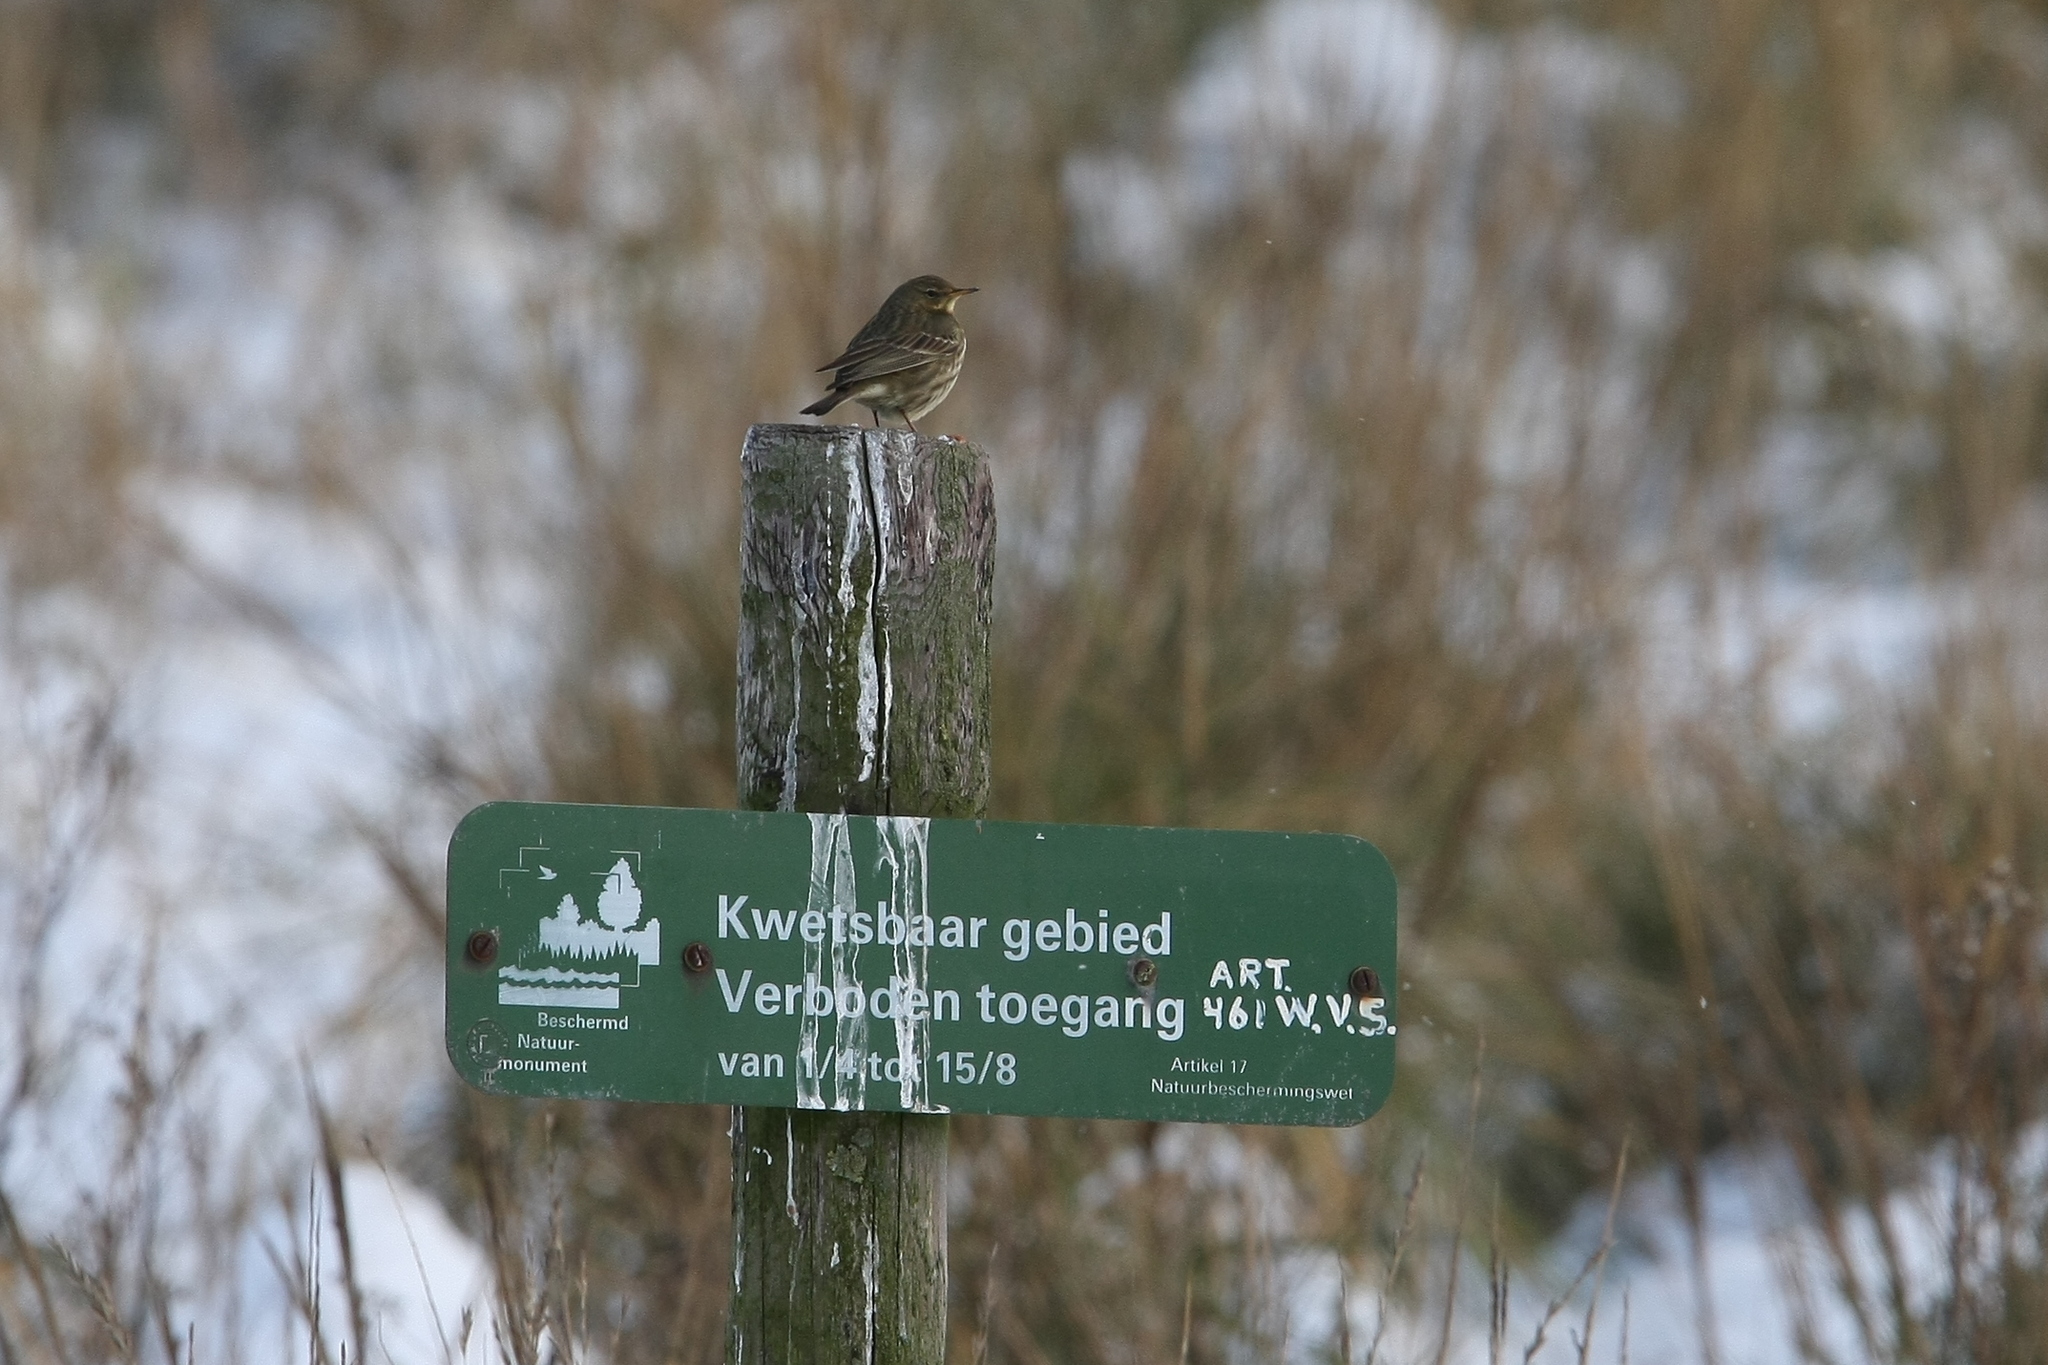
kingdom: Animalia
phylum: Chordata
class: Aves
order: Passeriformes
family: Motacillidae
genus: Anthus
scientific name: Anthus petrosus
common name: Eurasian rock pipit
